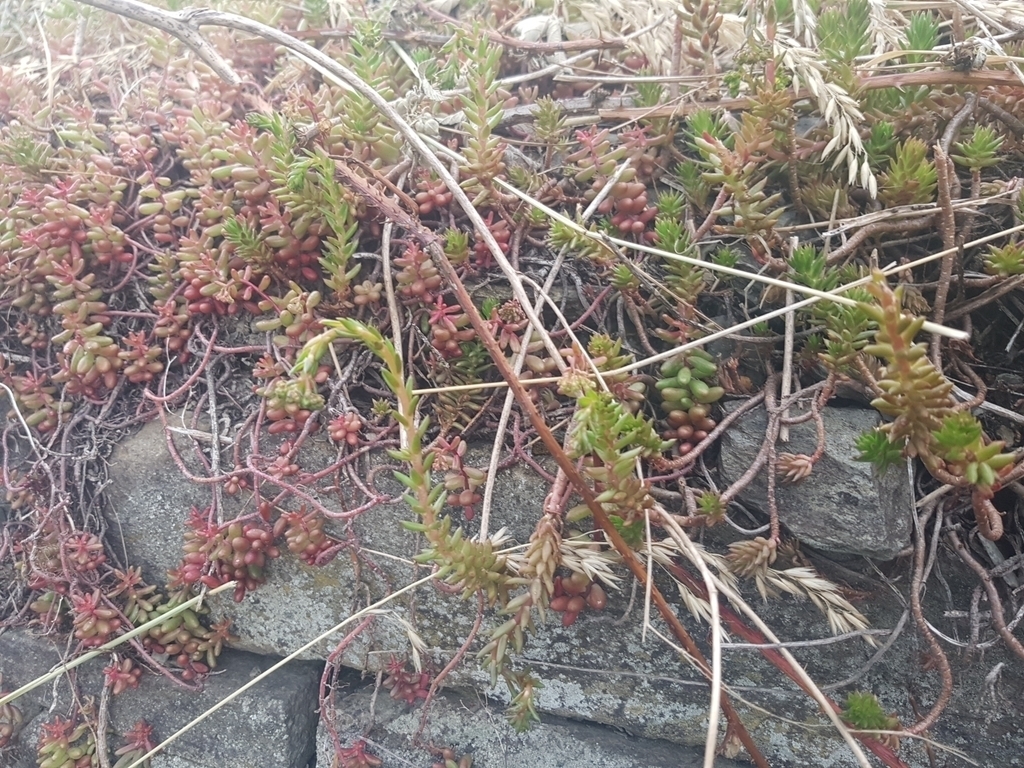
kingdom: Plantae
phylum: Tracheophyta
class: Magnoliopsida
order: Saxifragales
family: Crassulaceae
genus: Petrosedum
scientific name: Petrosedum rupestre
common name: Jenny's stonecrop
